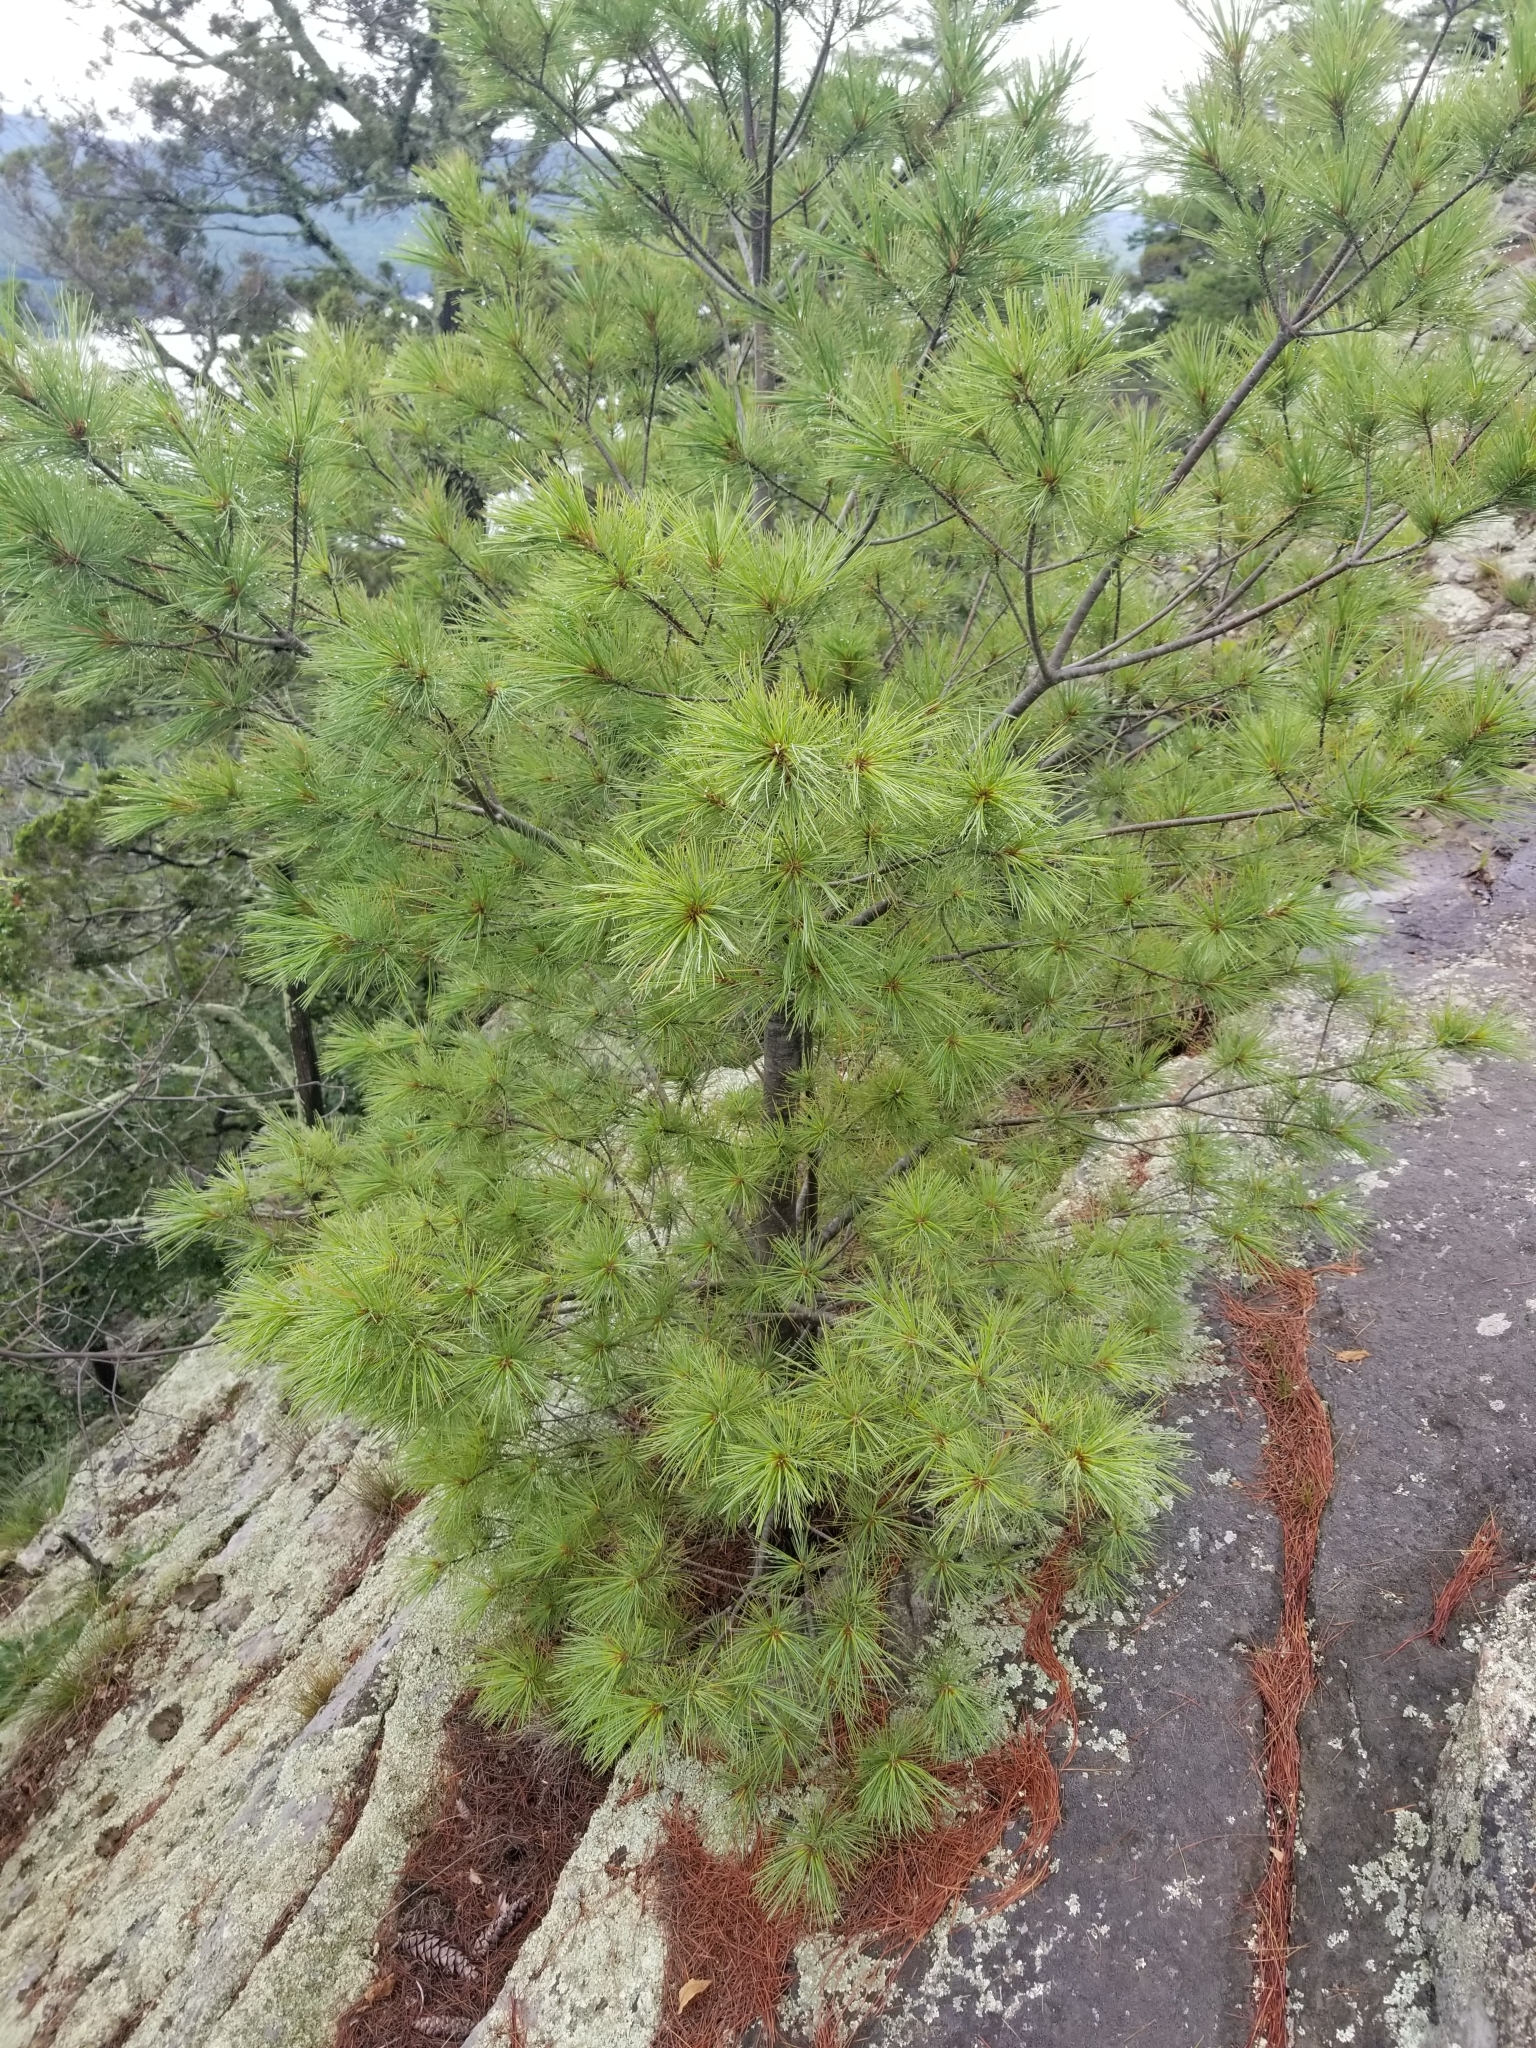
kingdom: Plantae
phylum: Tracheophyta
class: Pinopsida
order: Pinales
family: Pinaceae
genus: Pinus
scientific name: Pinus strobus
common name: Weymouth pine
